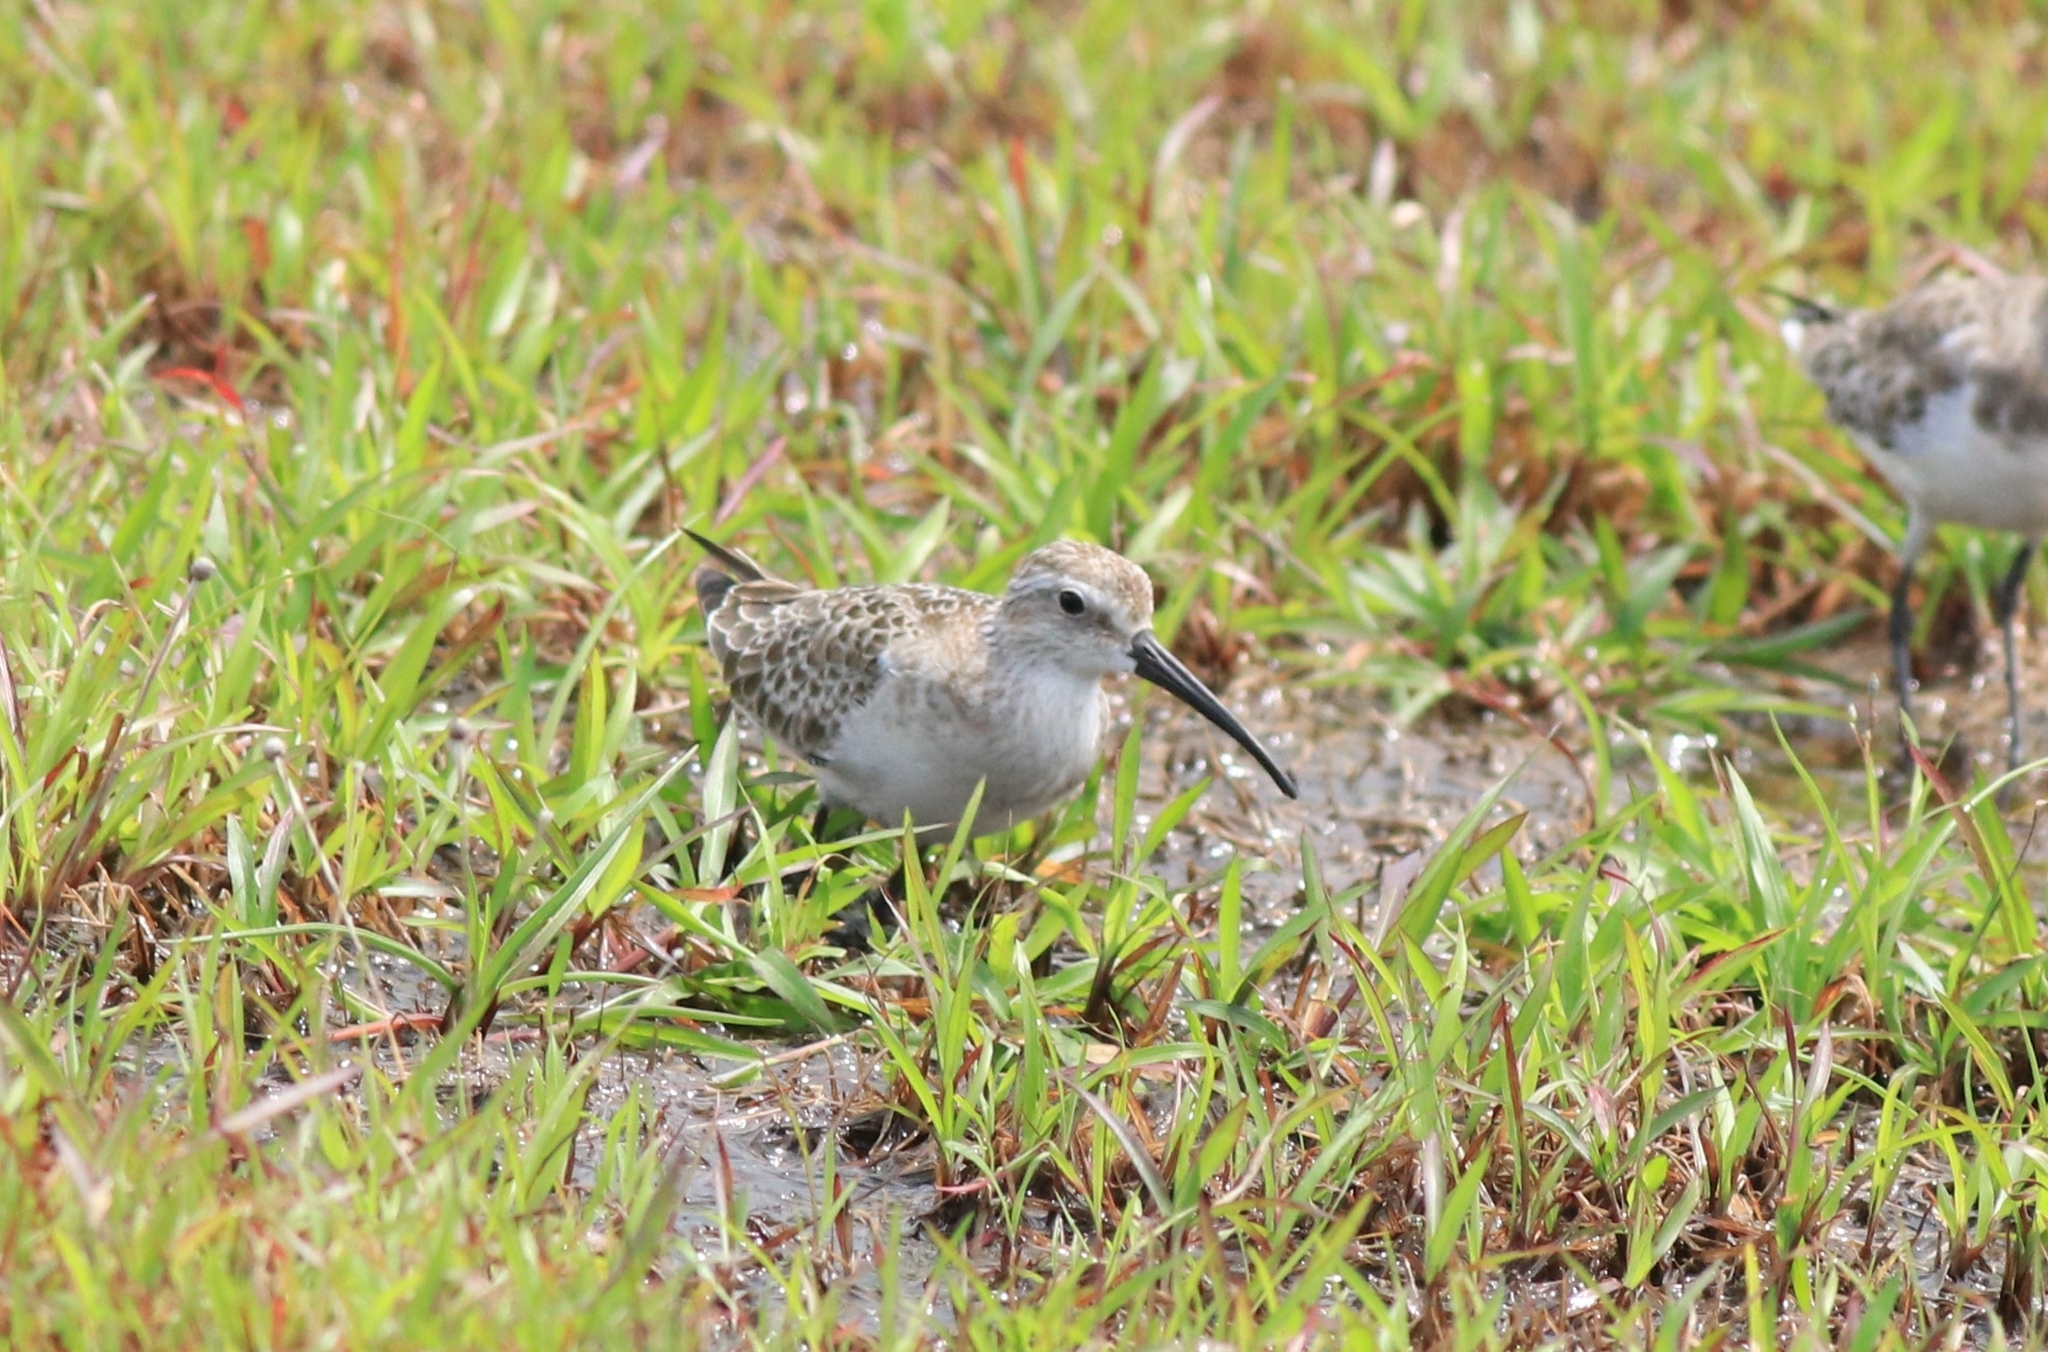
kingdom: Animalia
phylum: Chordata
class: Aves
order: Charadriiformes
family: Scolopacidae
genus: Calidris
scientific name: Calidris ferruginea
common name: Curlew sandpiper
